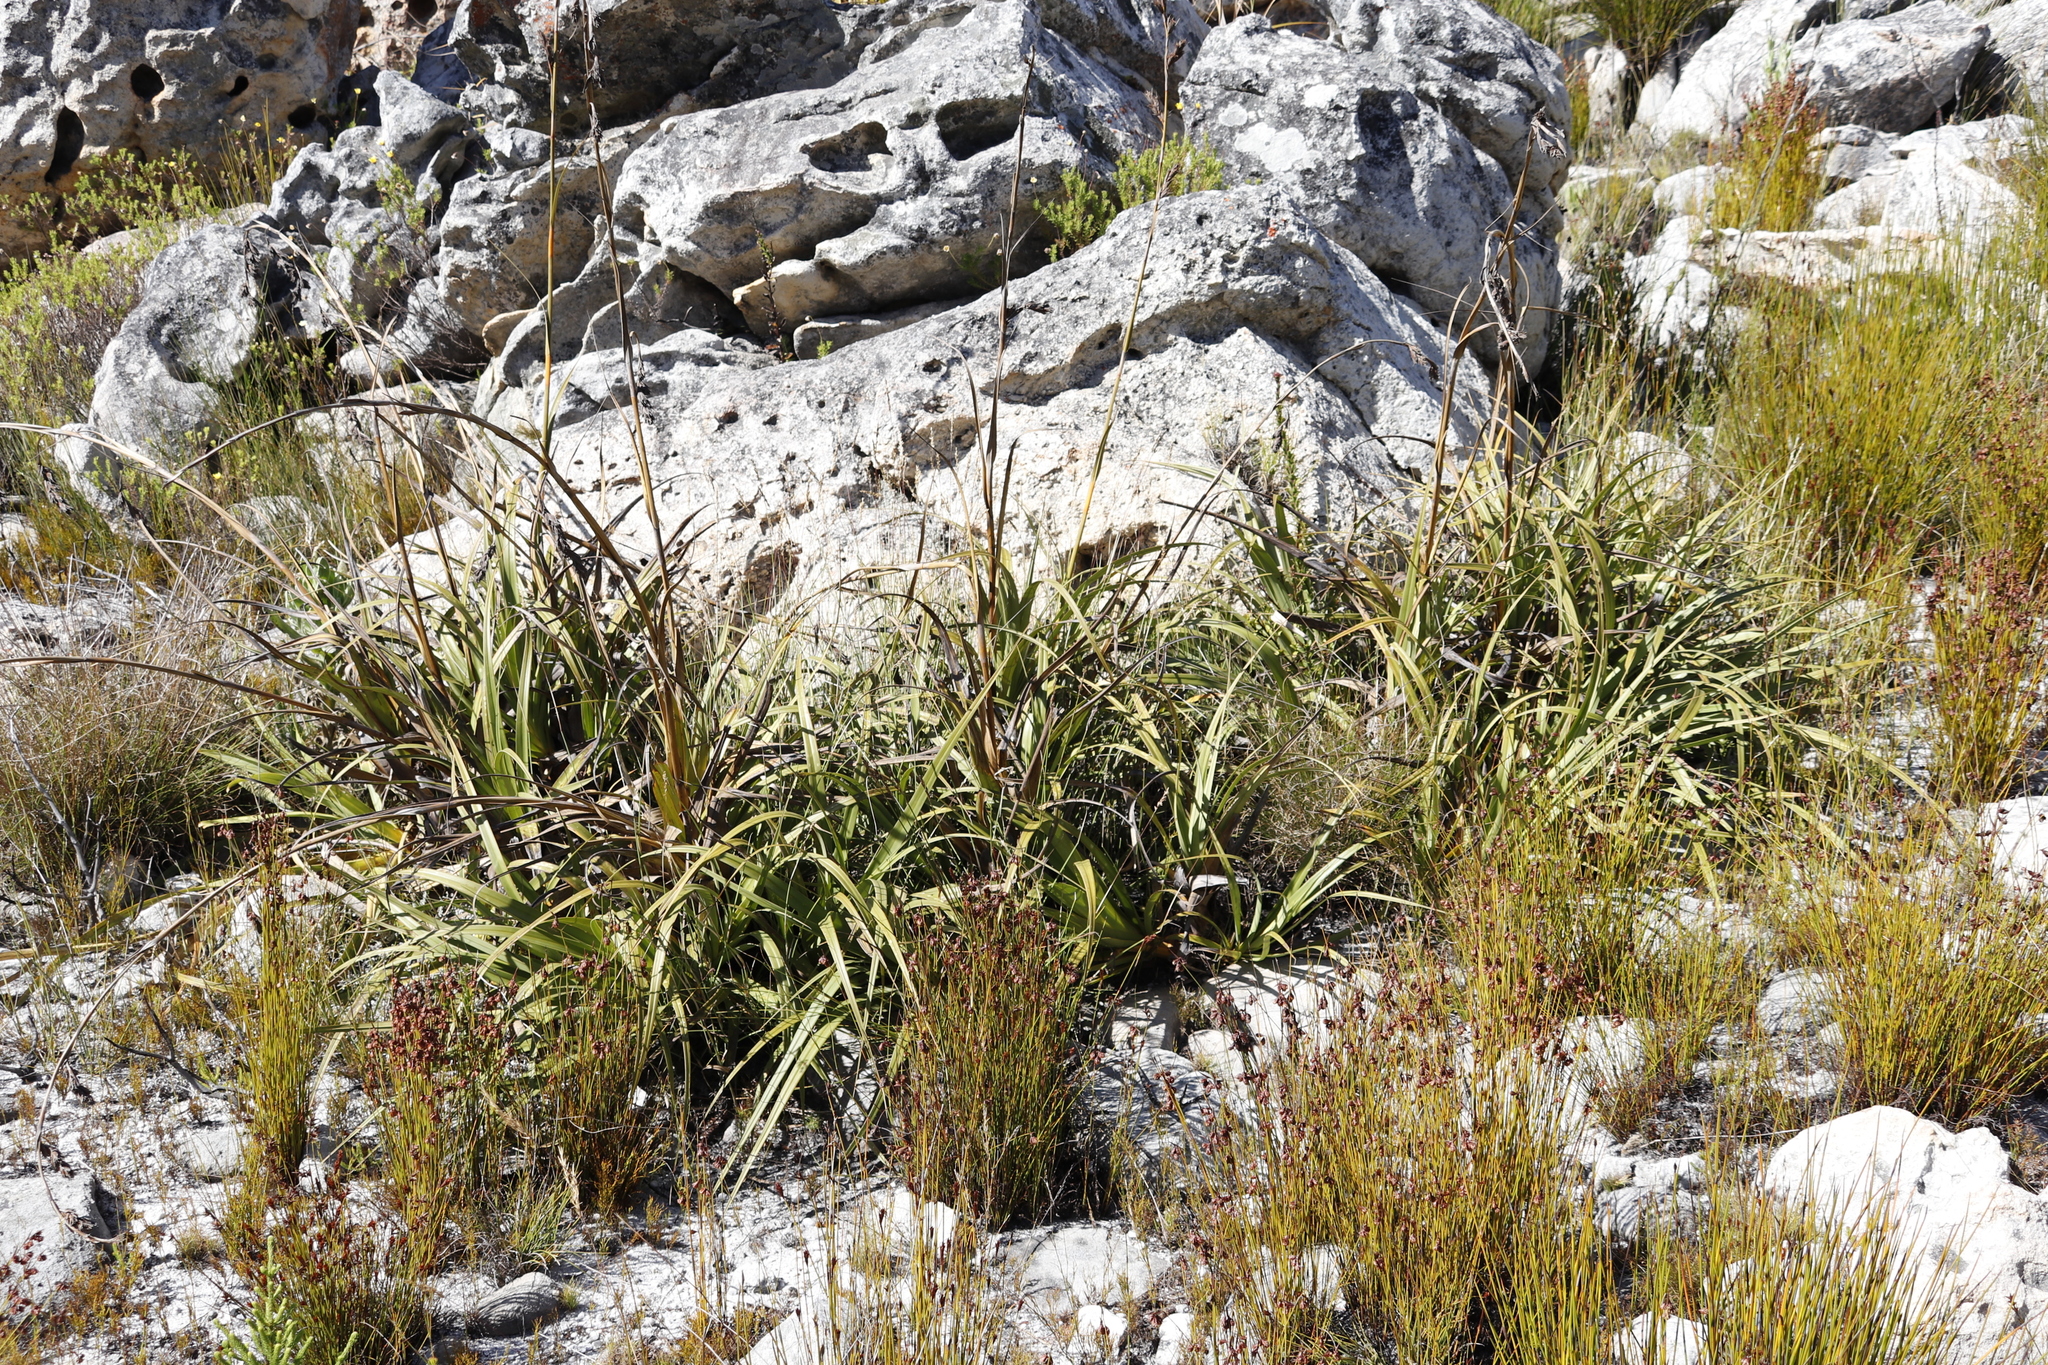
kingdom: Plantae
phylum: Tracheophyta
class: Liliopsida
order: Poales
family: Cyperaceae
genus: Tetraria
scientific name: Tetraria thermalis
